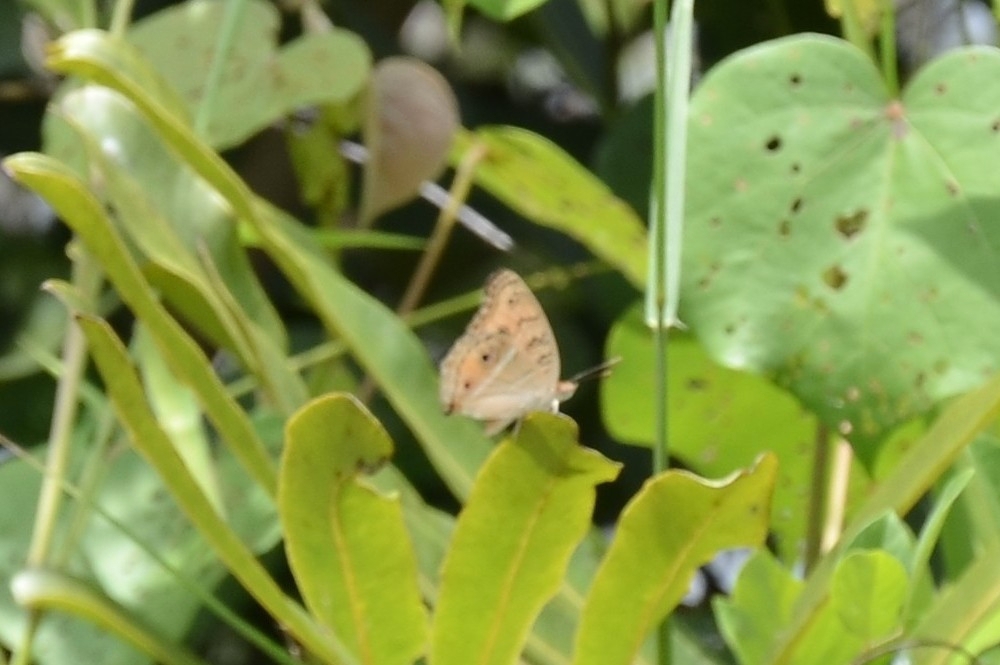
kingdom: Animalia
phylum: Arthropoda
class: Insecta
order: Lepidoptera
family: Nymphalidae
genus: Junonia
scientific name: Junonia almana
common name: Peacock pansy
